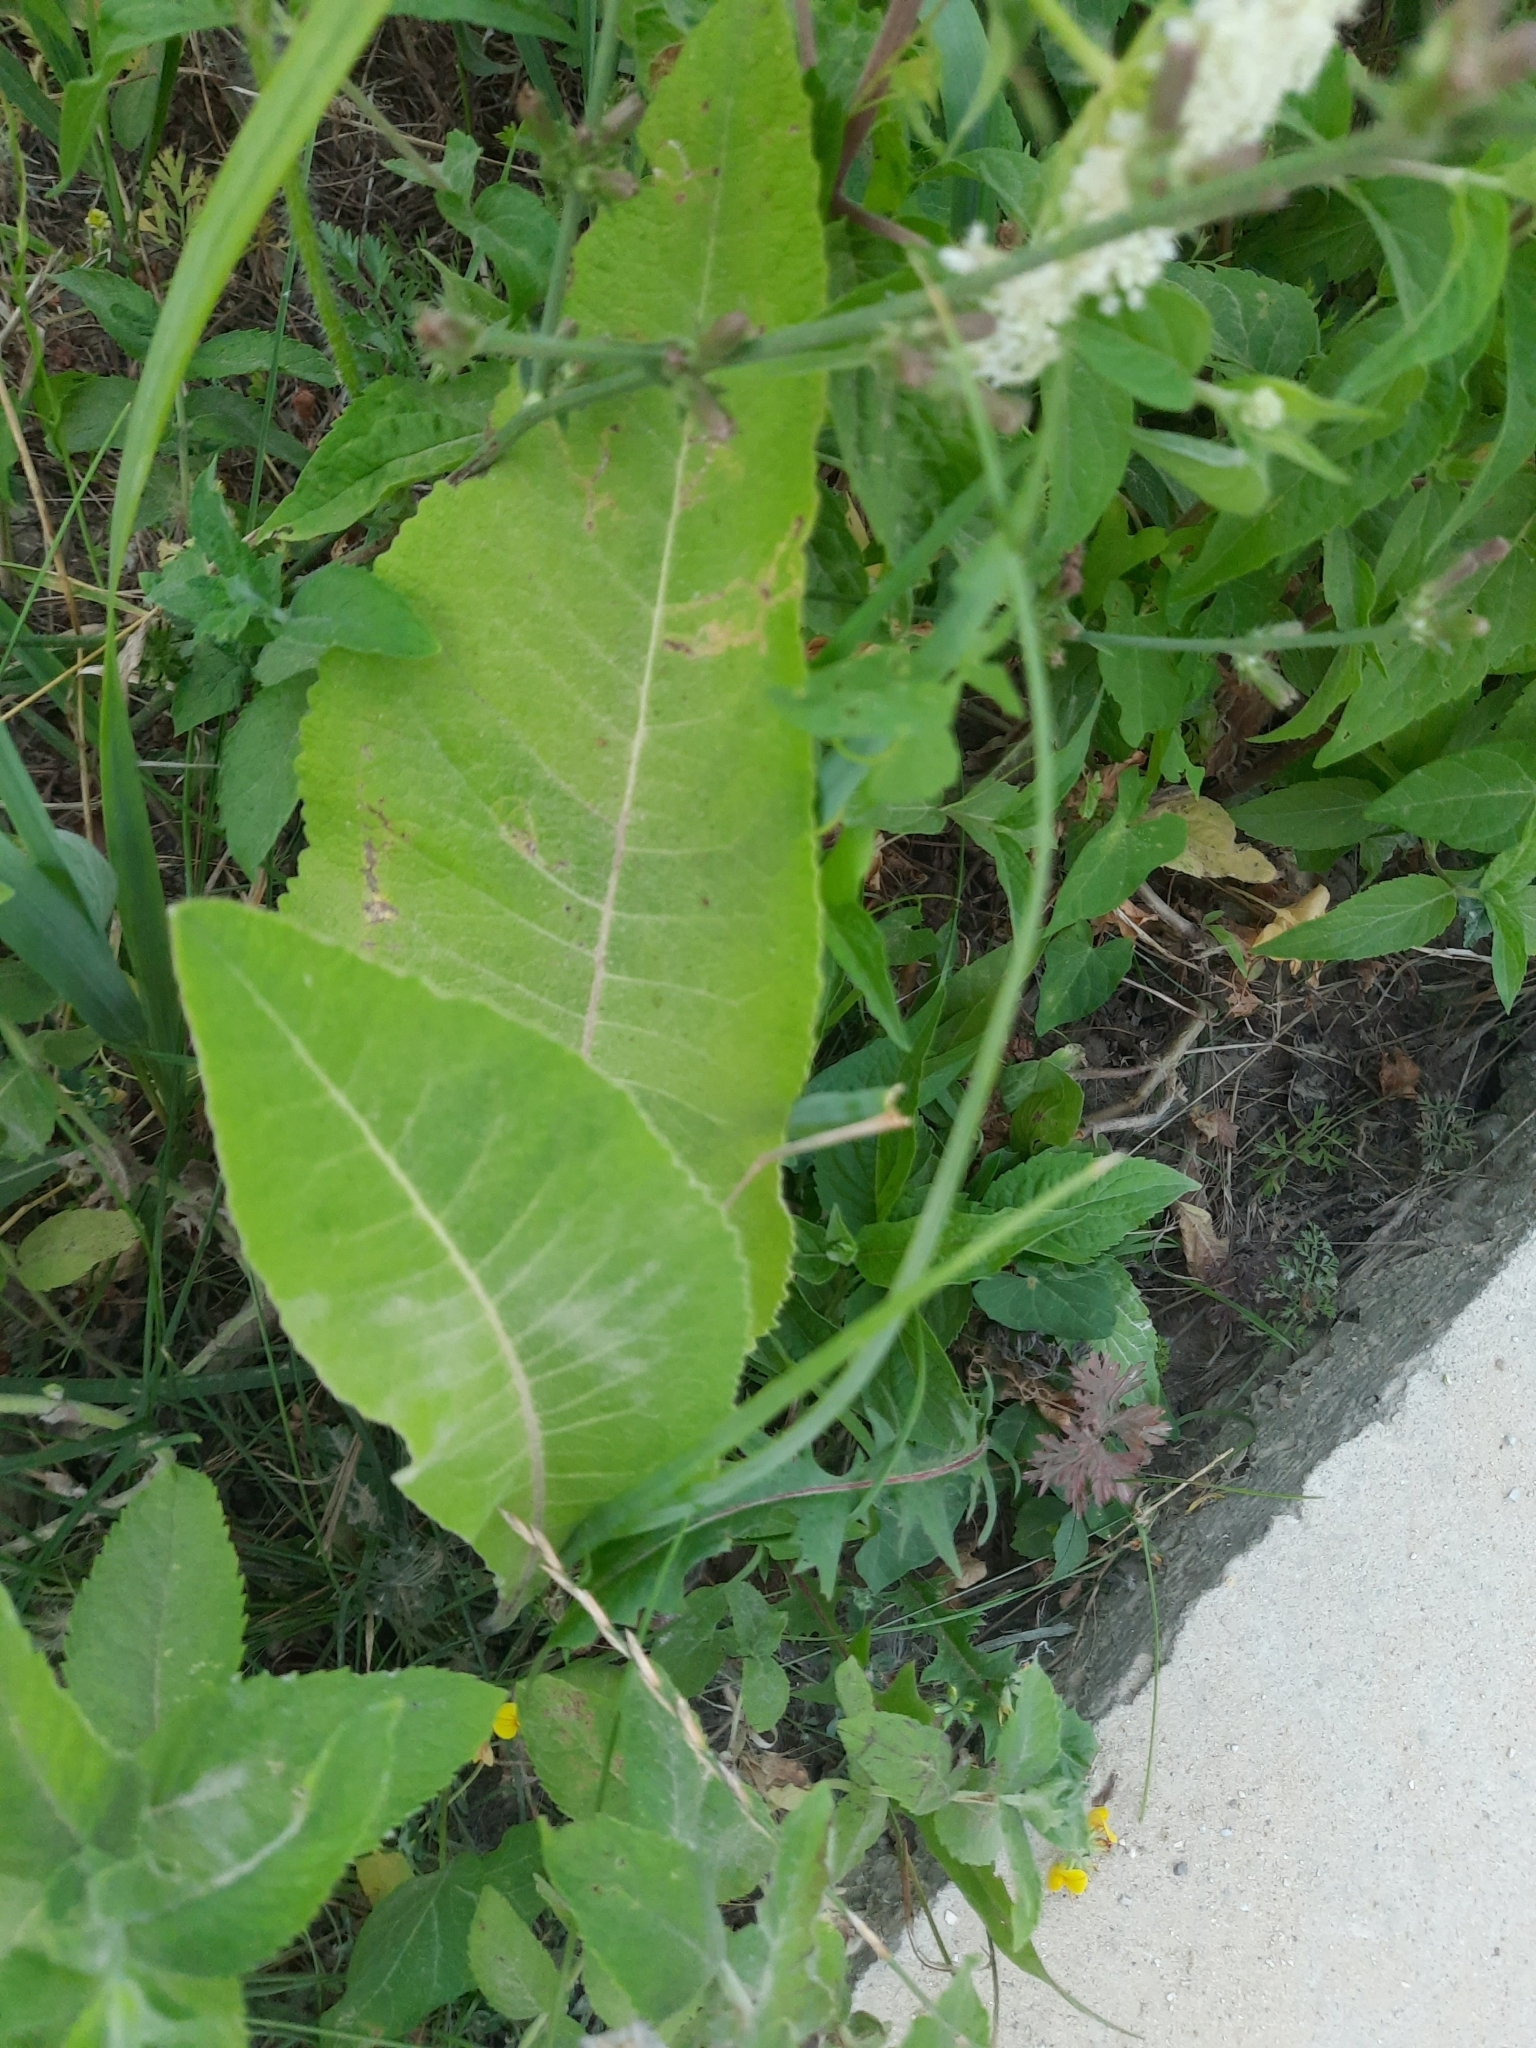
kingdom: Plantae
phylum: Tracheophyta
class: Magnoliopsida
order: Asterales
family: Asteraceae
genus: Inula
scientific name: Inula helenium
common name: Elecampane
